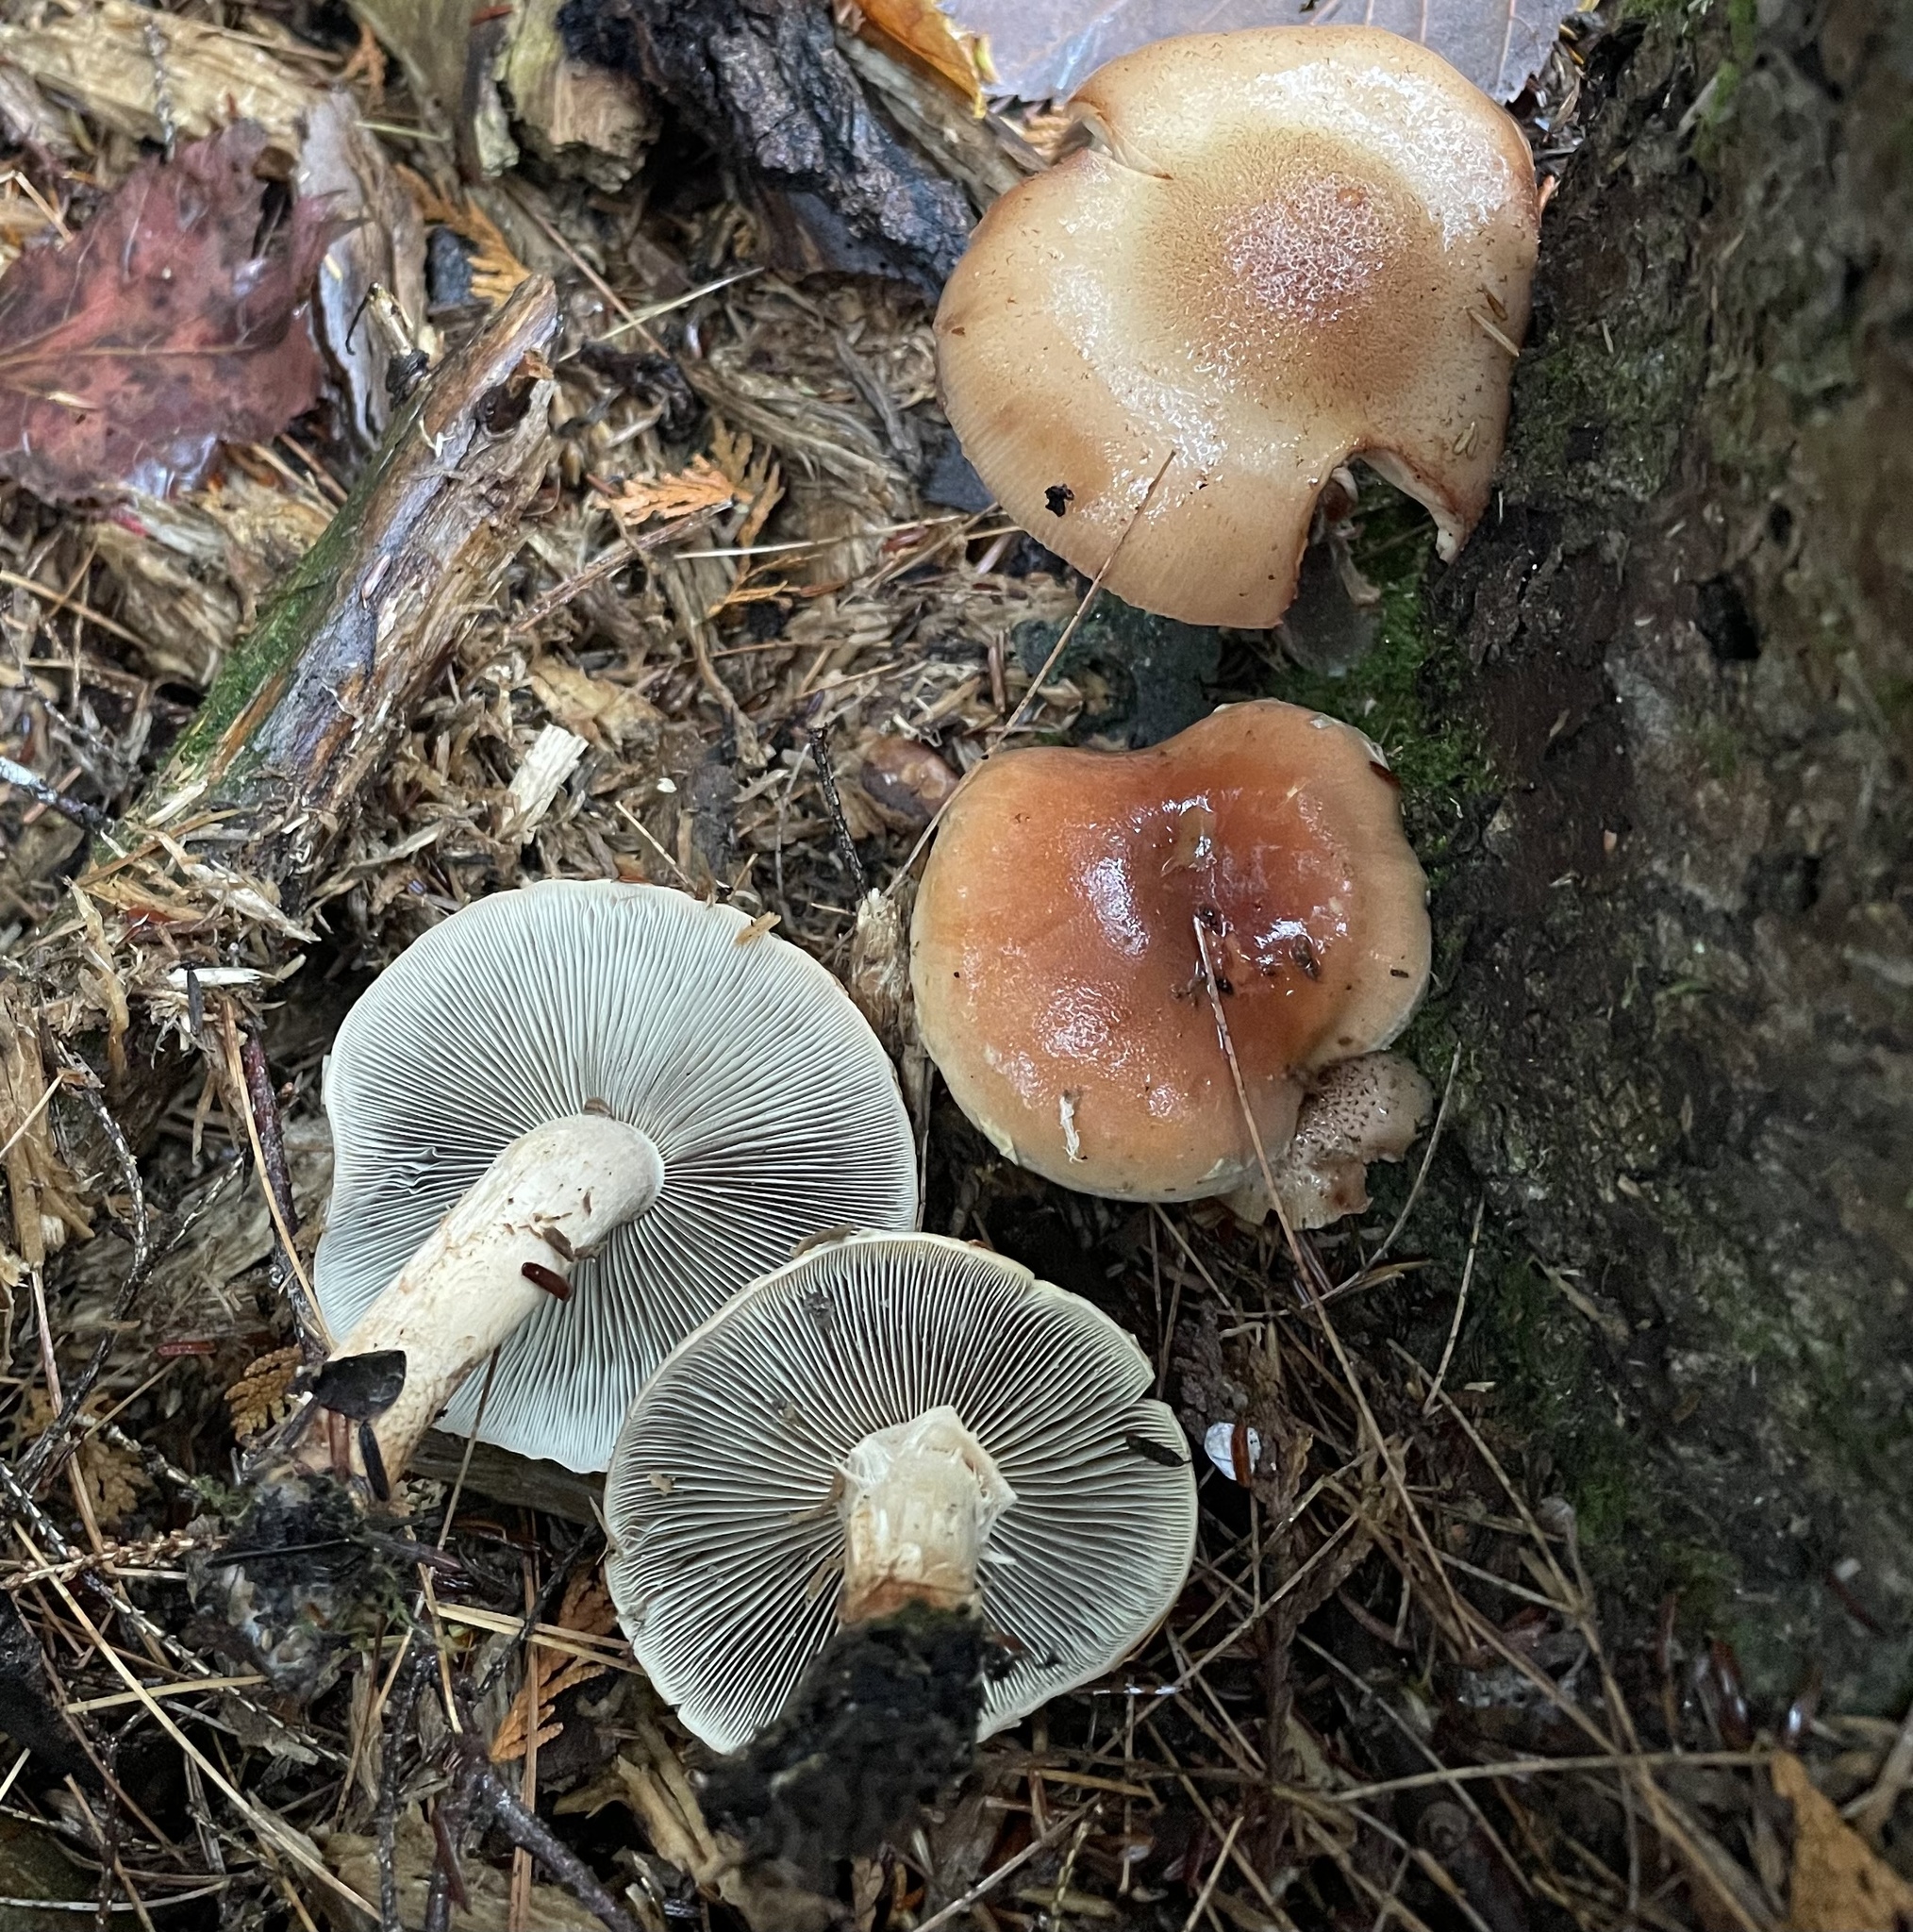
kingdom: Fungi
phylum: Basidiomycota
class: Agaricomycetes
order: Agaricales
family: Strophariaceae
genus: Hypholoma
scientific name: Hypholoma lateritium
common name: Brick caps
